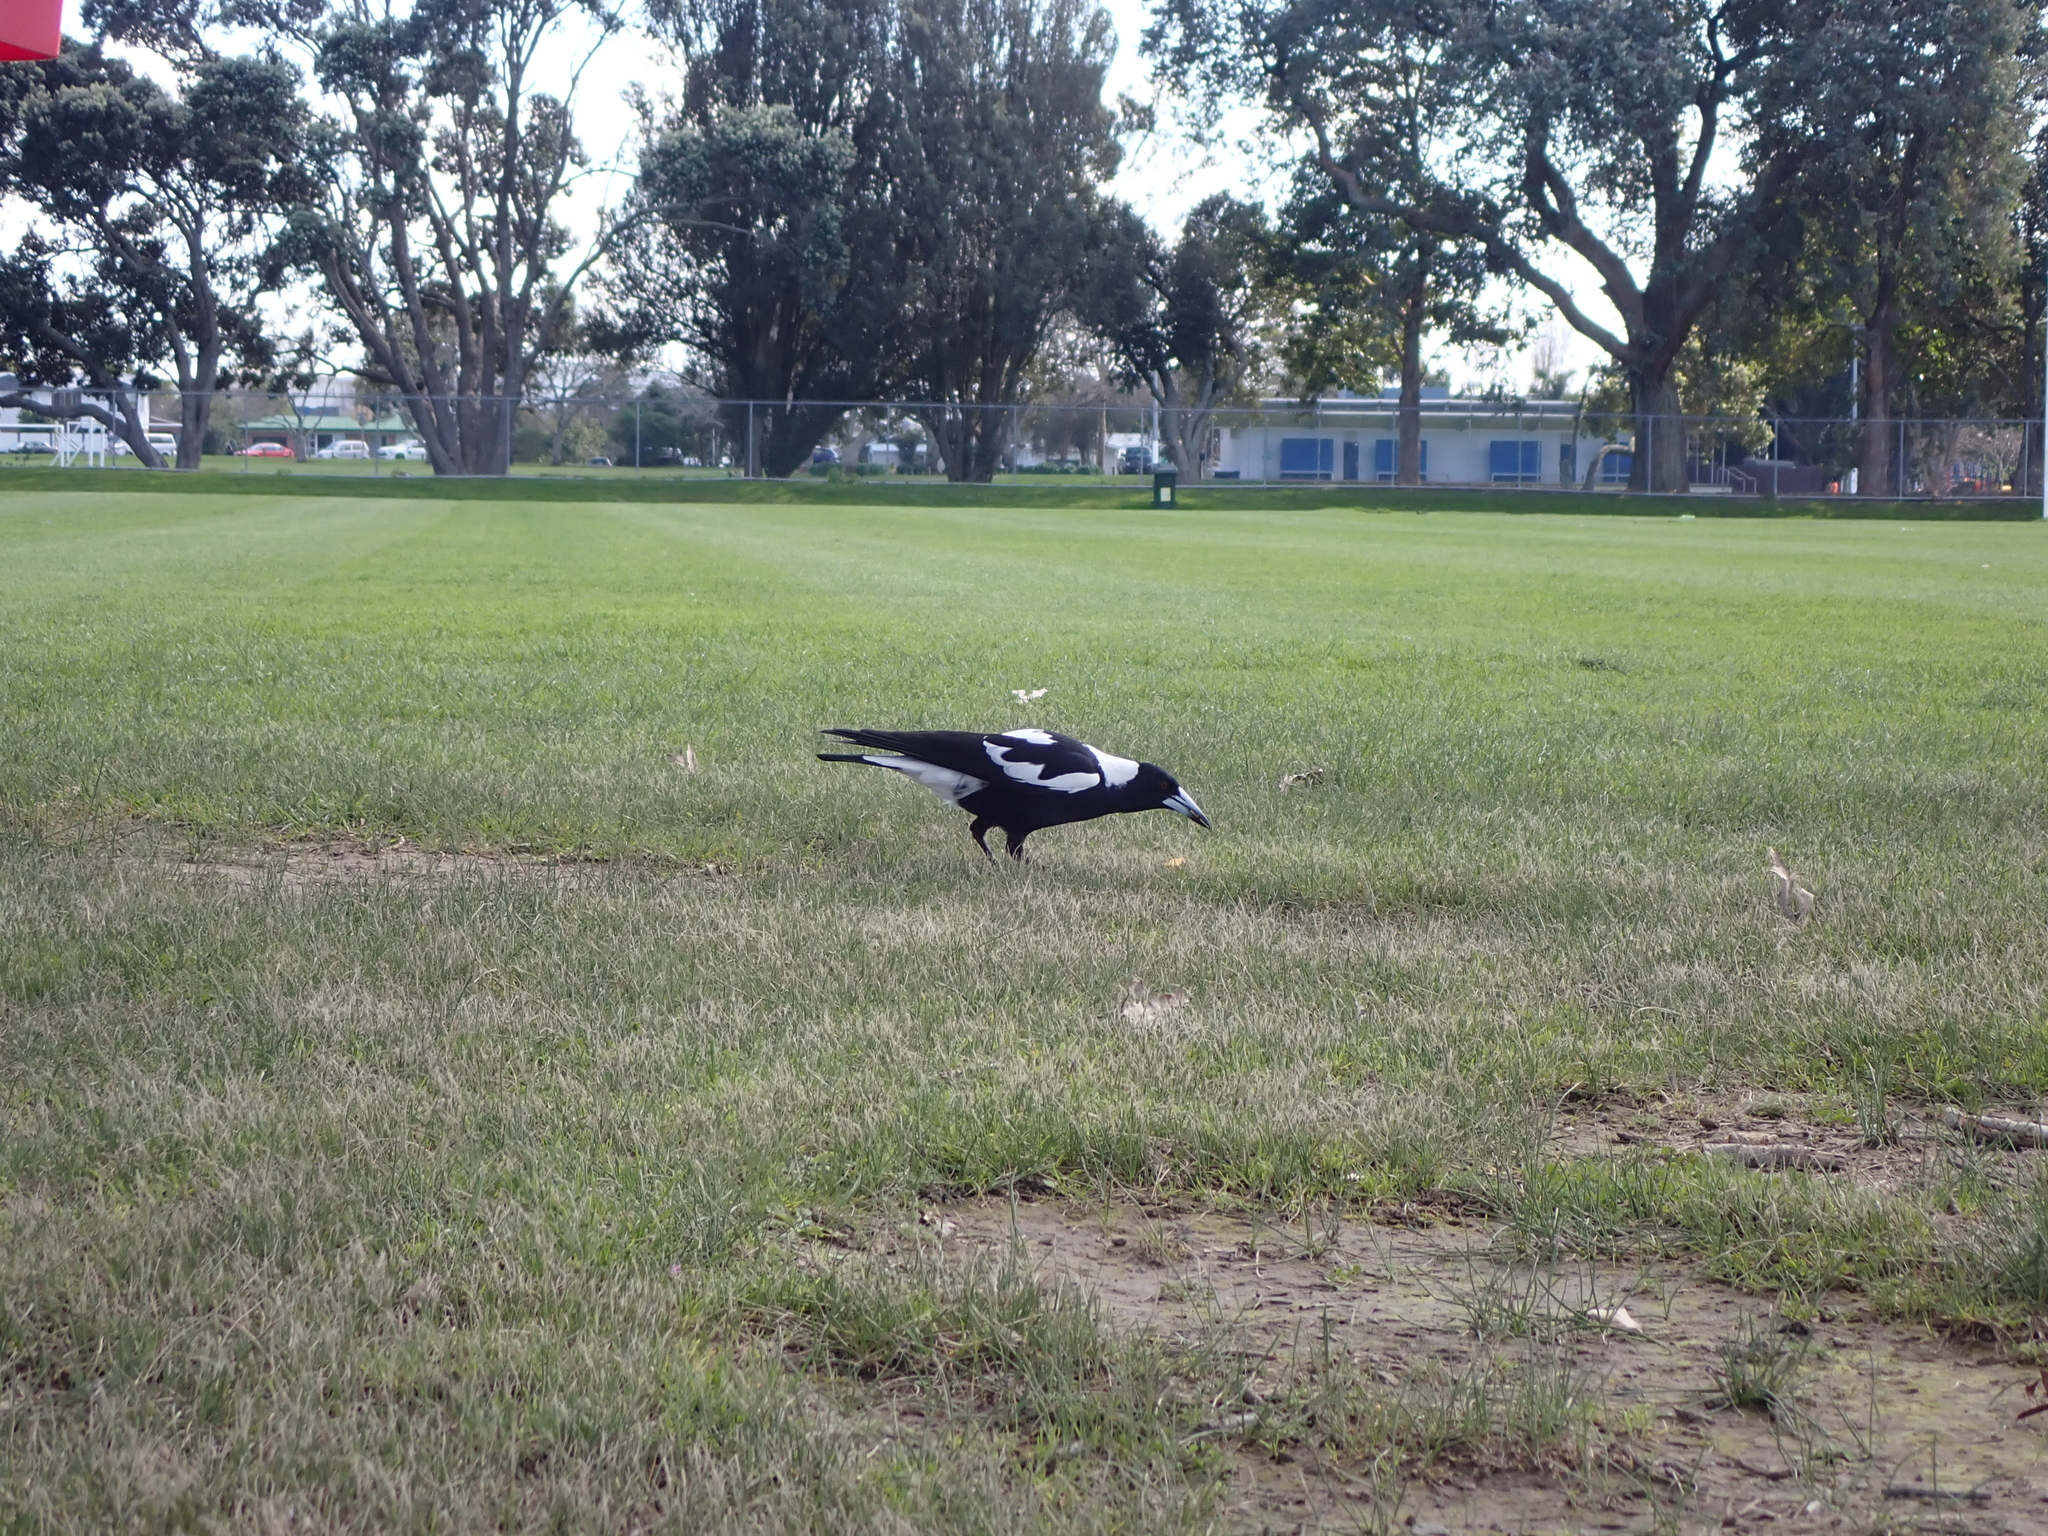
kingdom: Animalia
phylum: Chordata
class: Aves
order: Passeriformes
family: Cracticidae
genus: Gymnorhina
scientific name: Gymnorhina tibicen
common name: Australian magpie
